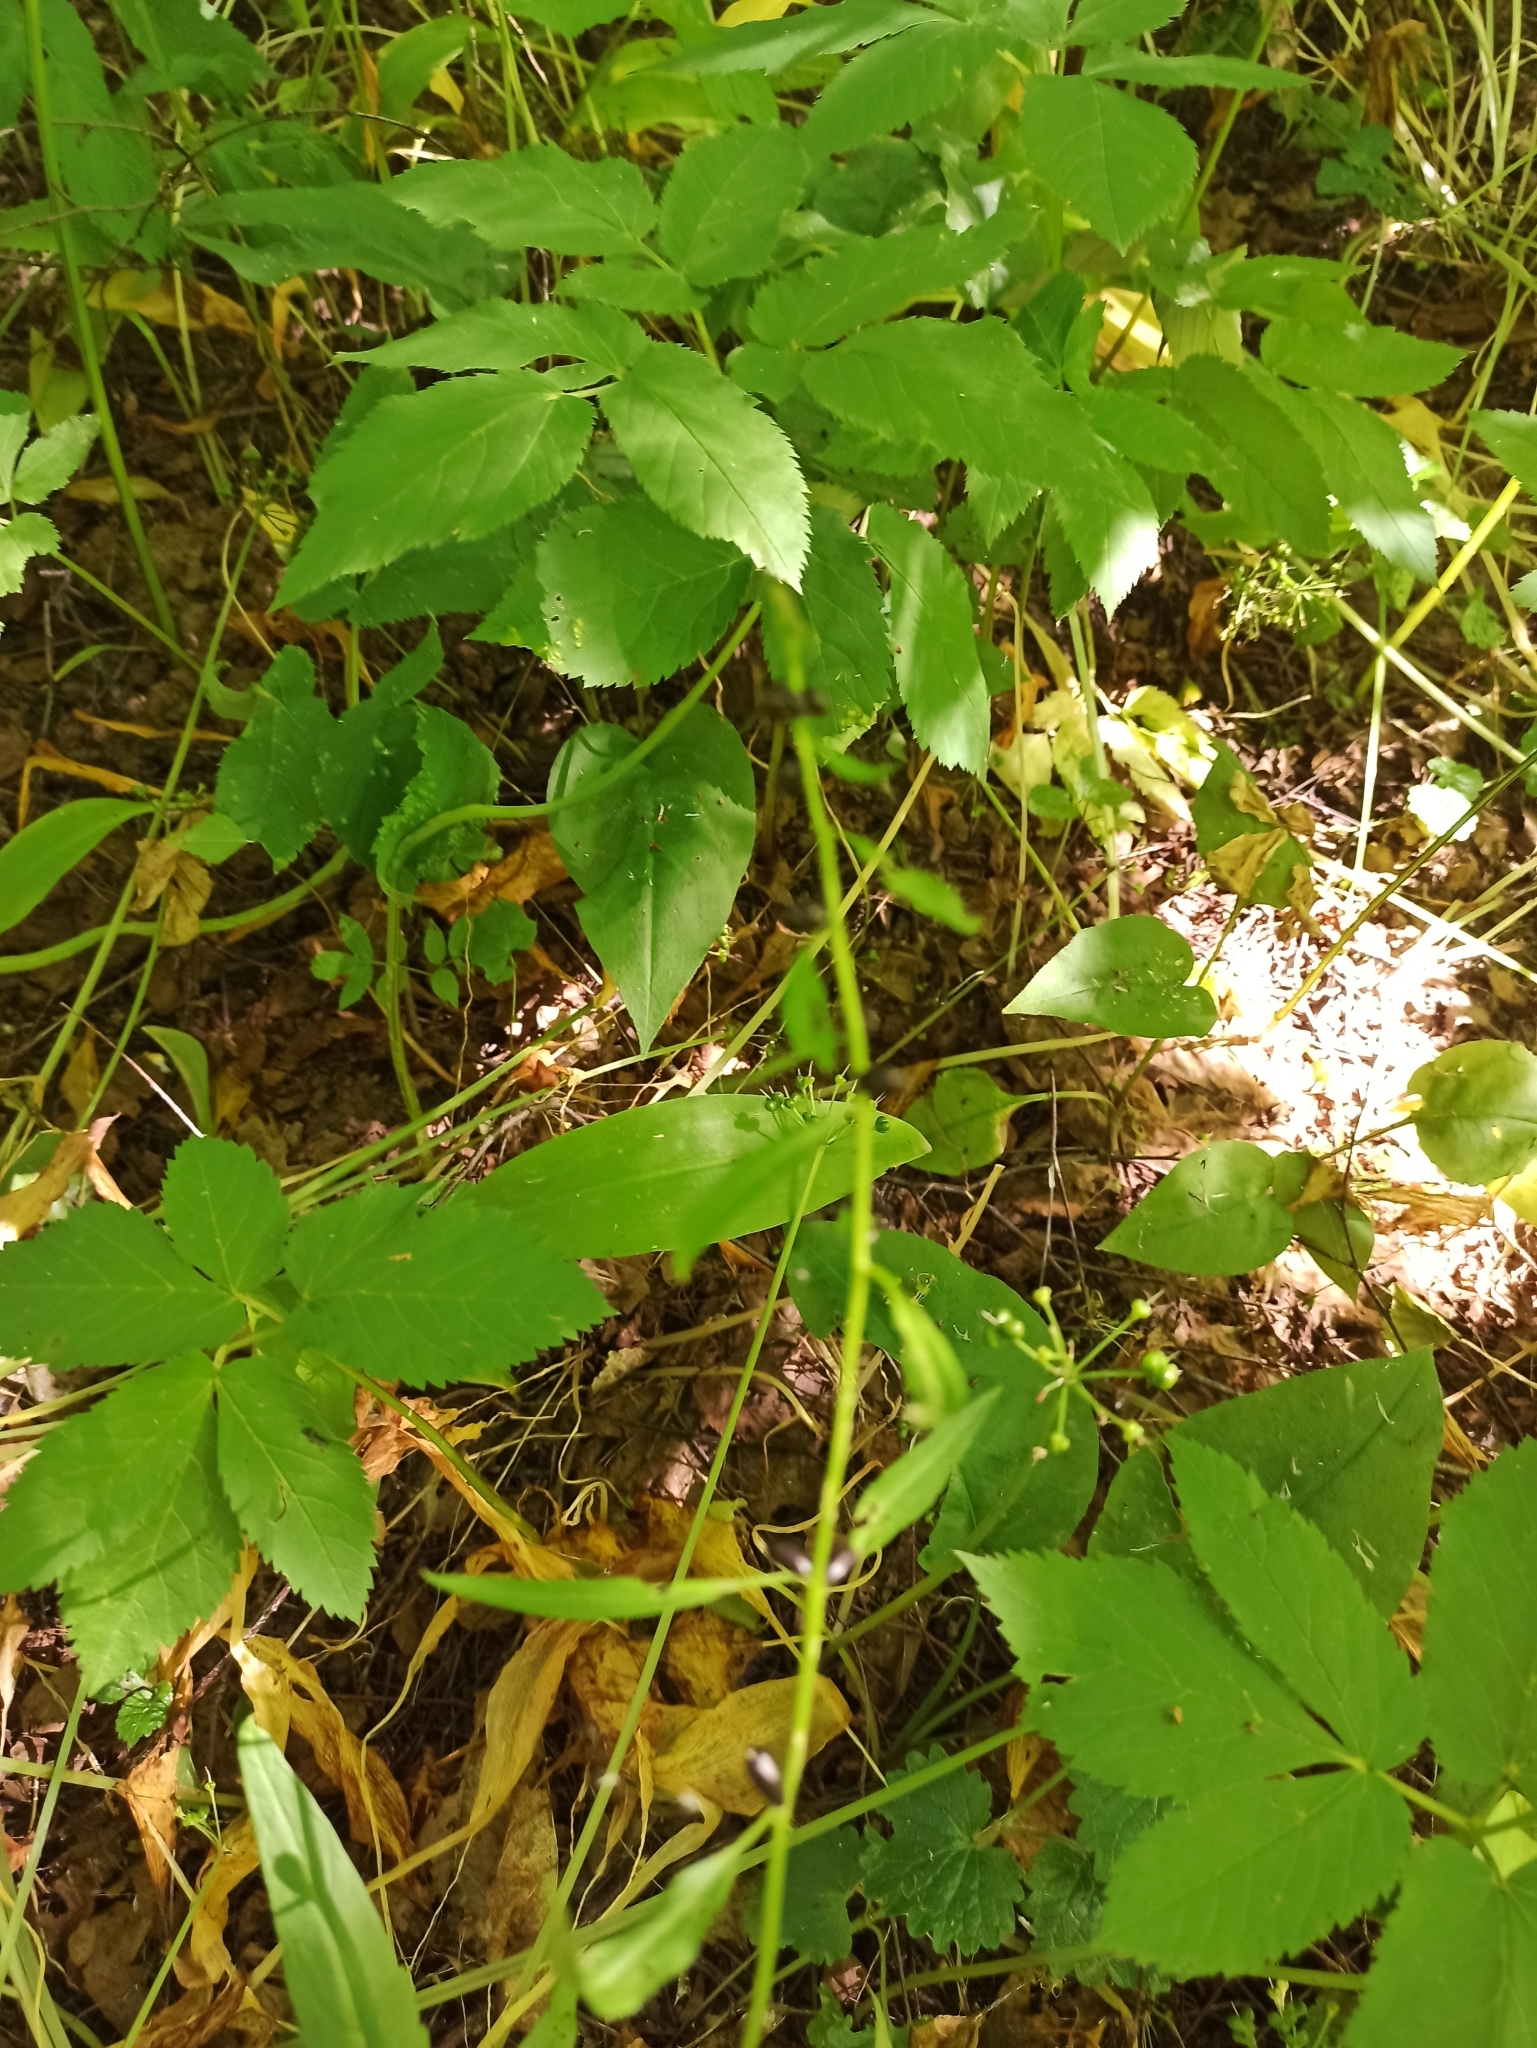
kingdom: Plantae
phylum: Tracheophyta
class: Magnoliopsida
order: Brassicales
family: Brassicaceae
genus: Cardamine
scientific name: Cardamine bulbifera
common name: Coralroot bittercress
